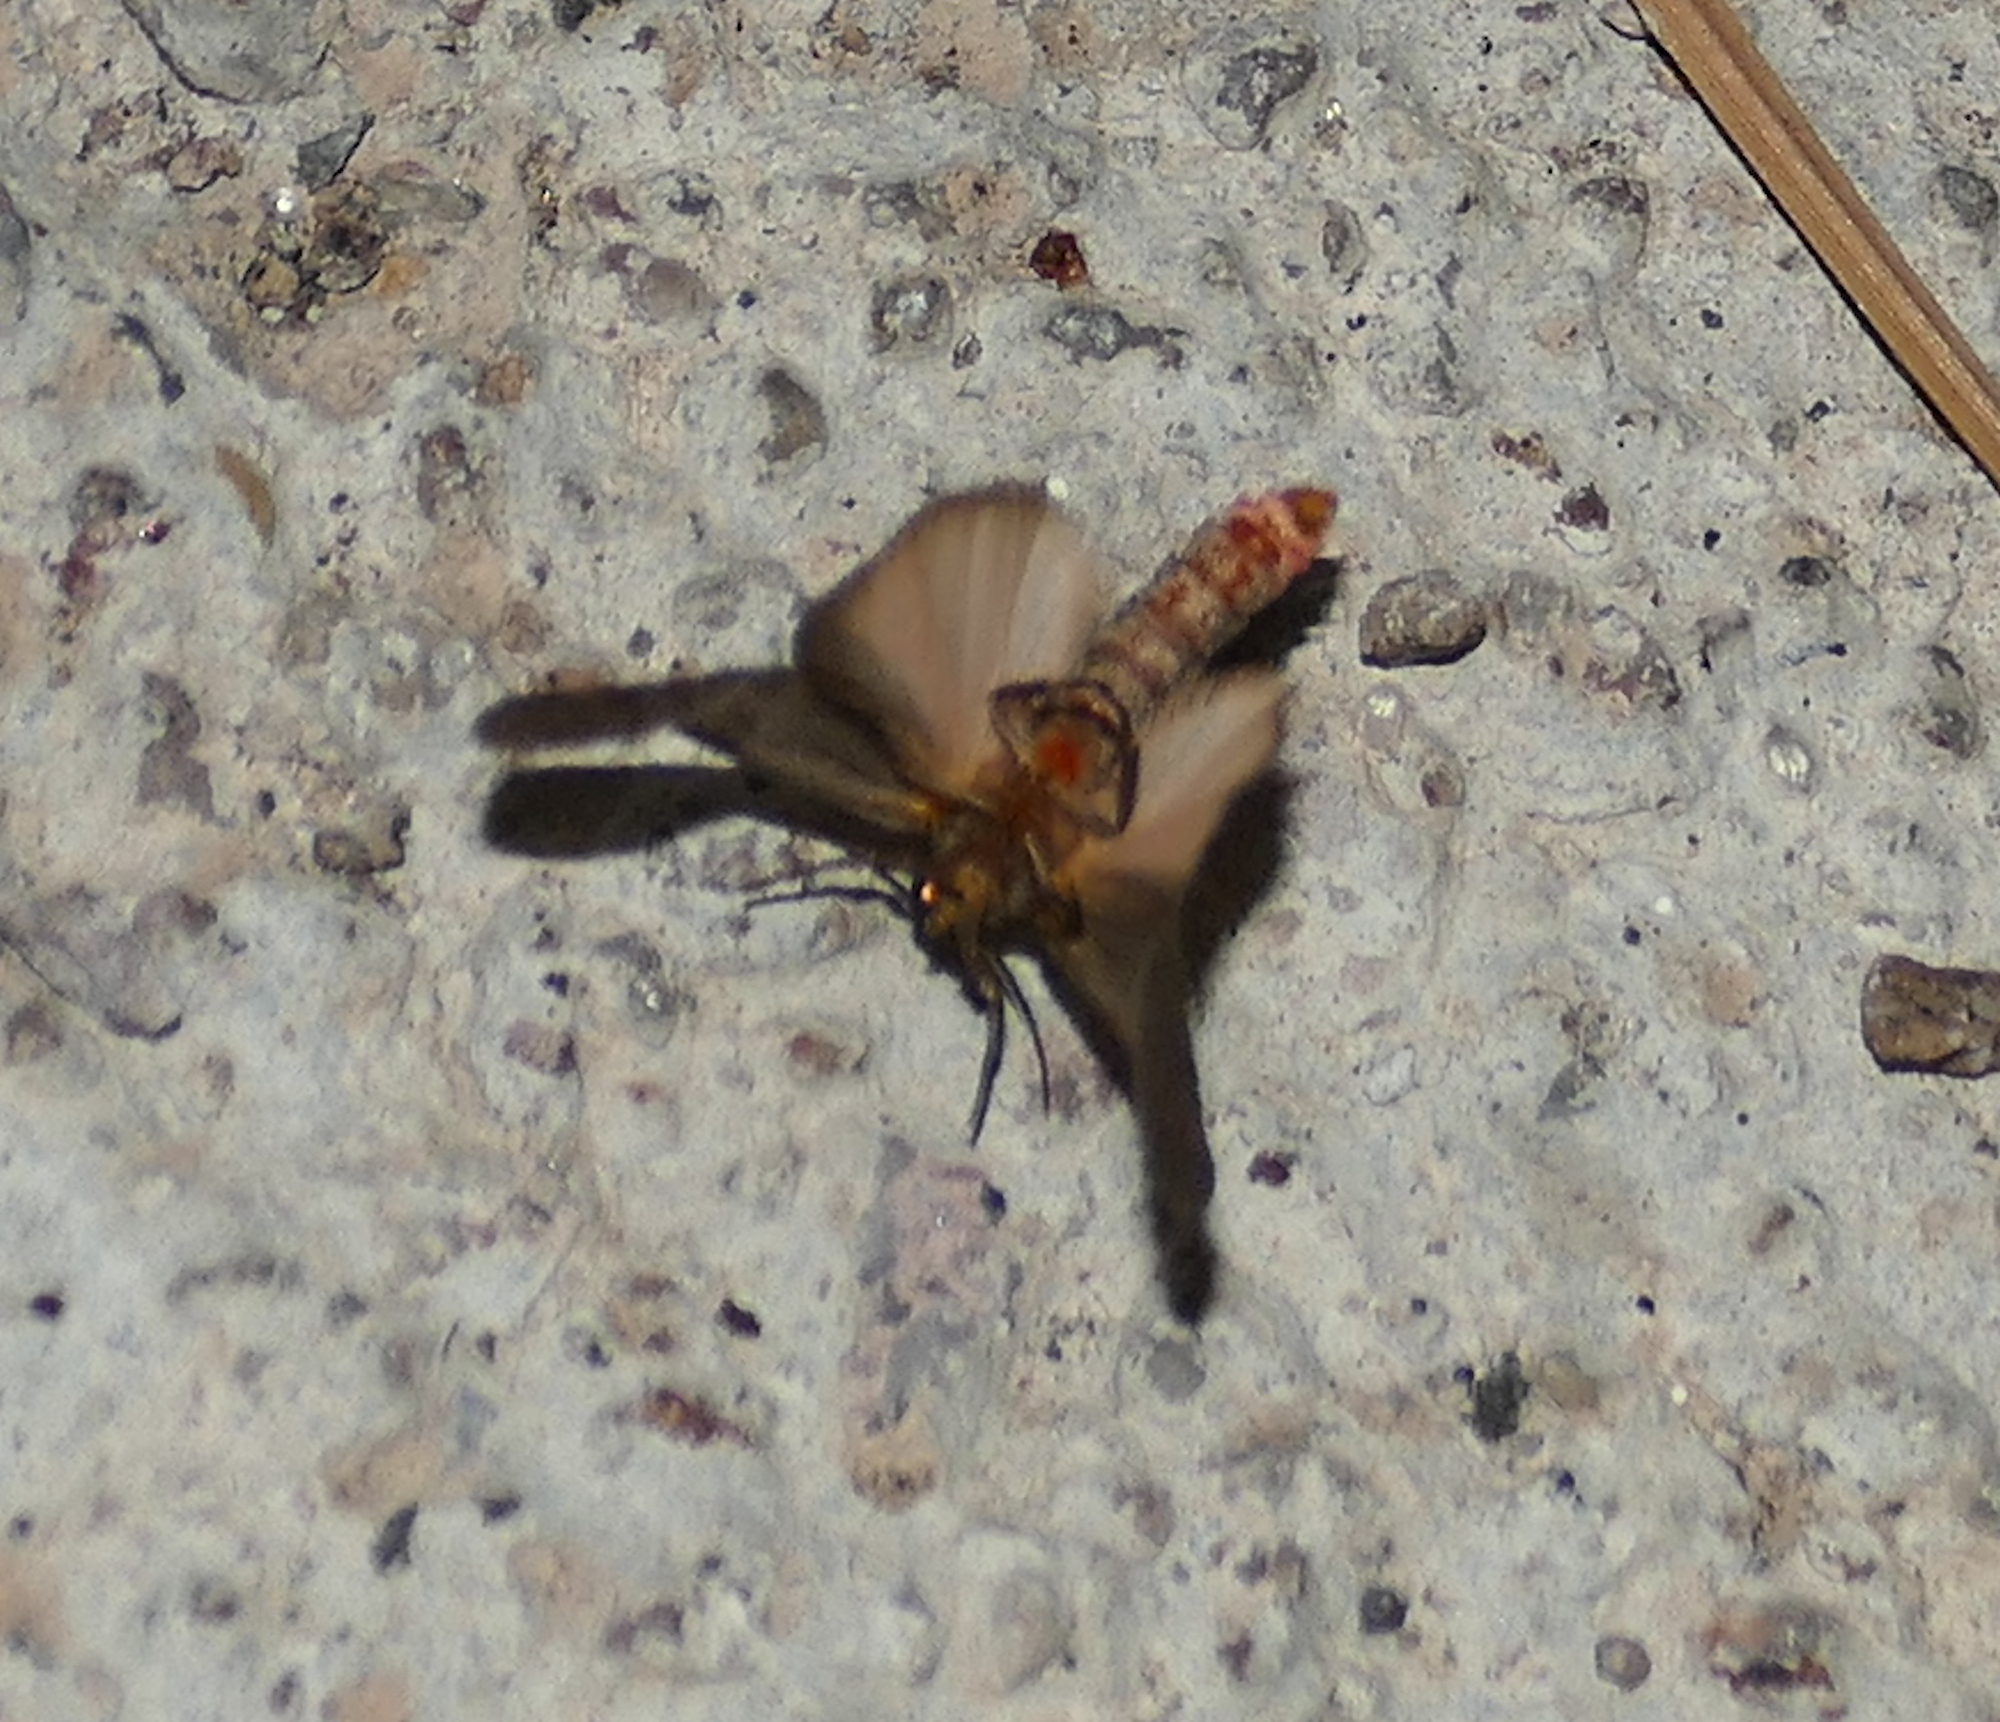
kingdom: Animalia
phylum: Arthropoda
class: Insecta
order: Lepidoptera
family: Erebidae
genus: Hypoprepia
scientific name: Hypoprepia inculta
